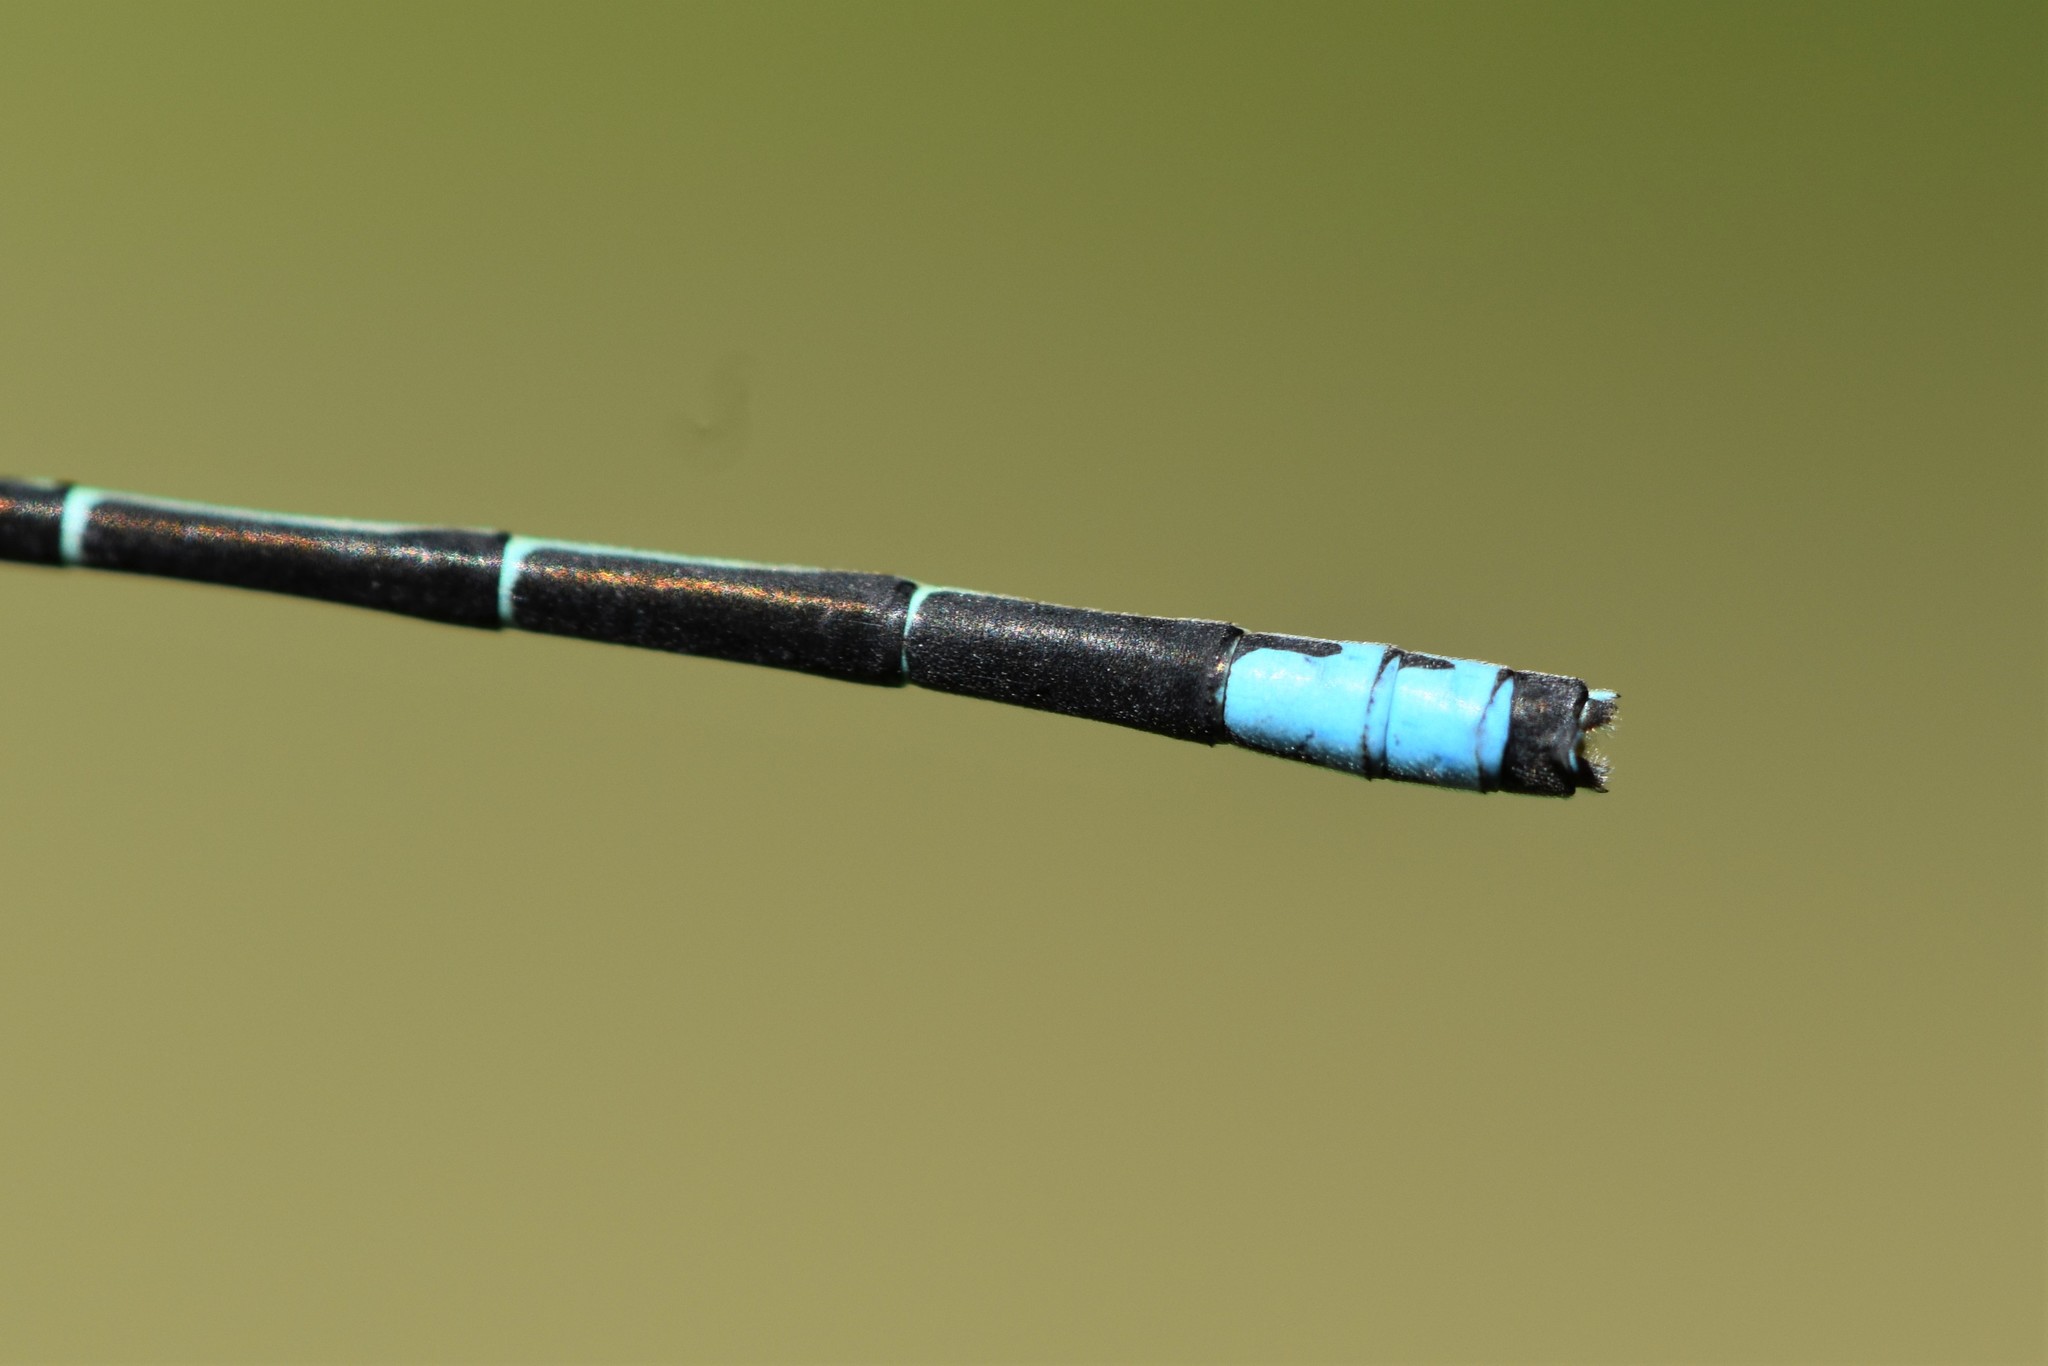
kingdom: Animalia
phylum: Arthropoda
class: Insecta
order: Odonata
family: Coenagrionidae
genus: Ischnura
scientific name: Ischnura perparva
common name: Western forktail
